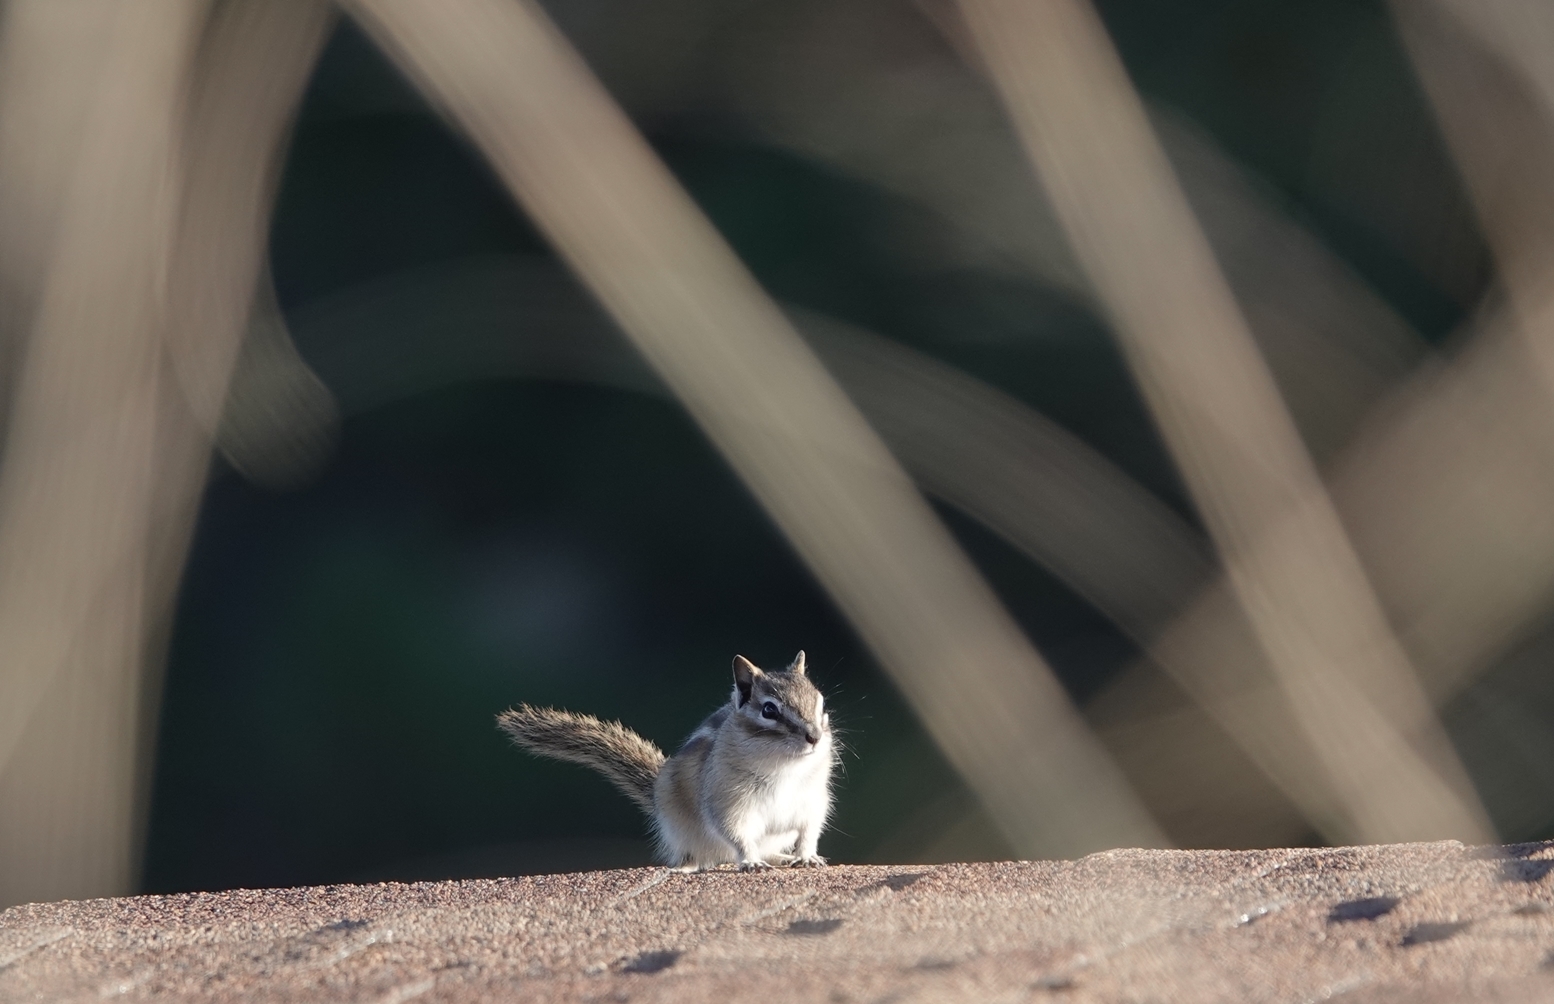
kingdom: Animalia
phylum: Chordata
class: Mammalia
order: Rodentia
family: Sciuridae
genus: Tamias
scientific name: Tamias minimus
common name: Least chipmunk
